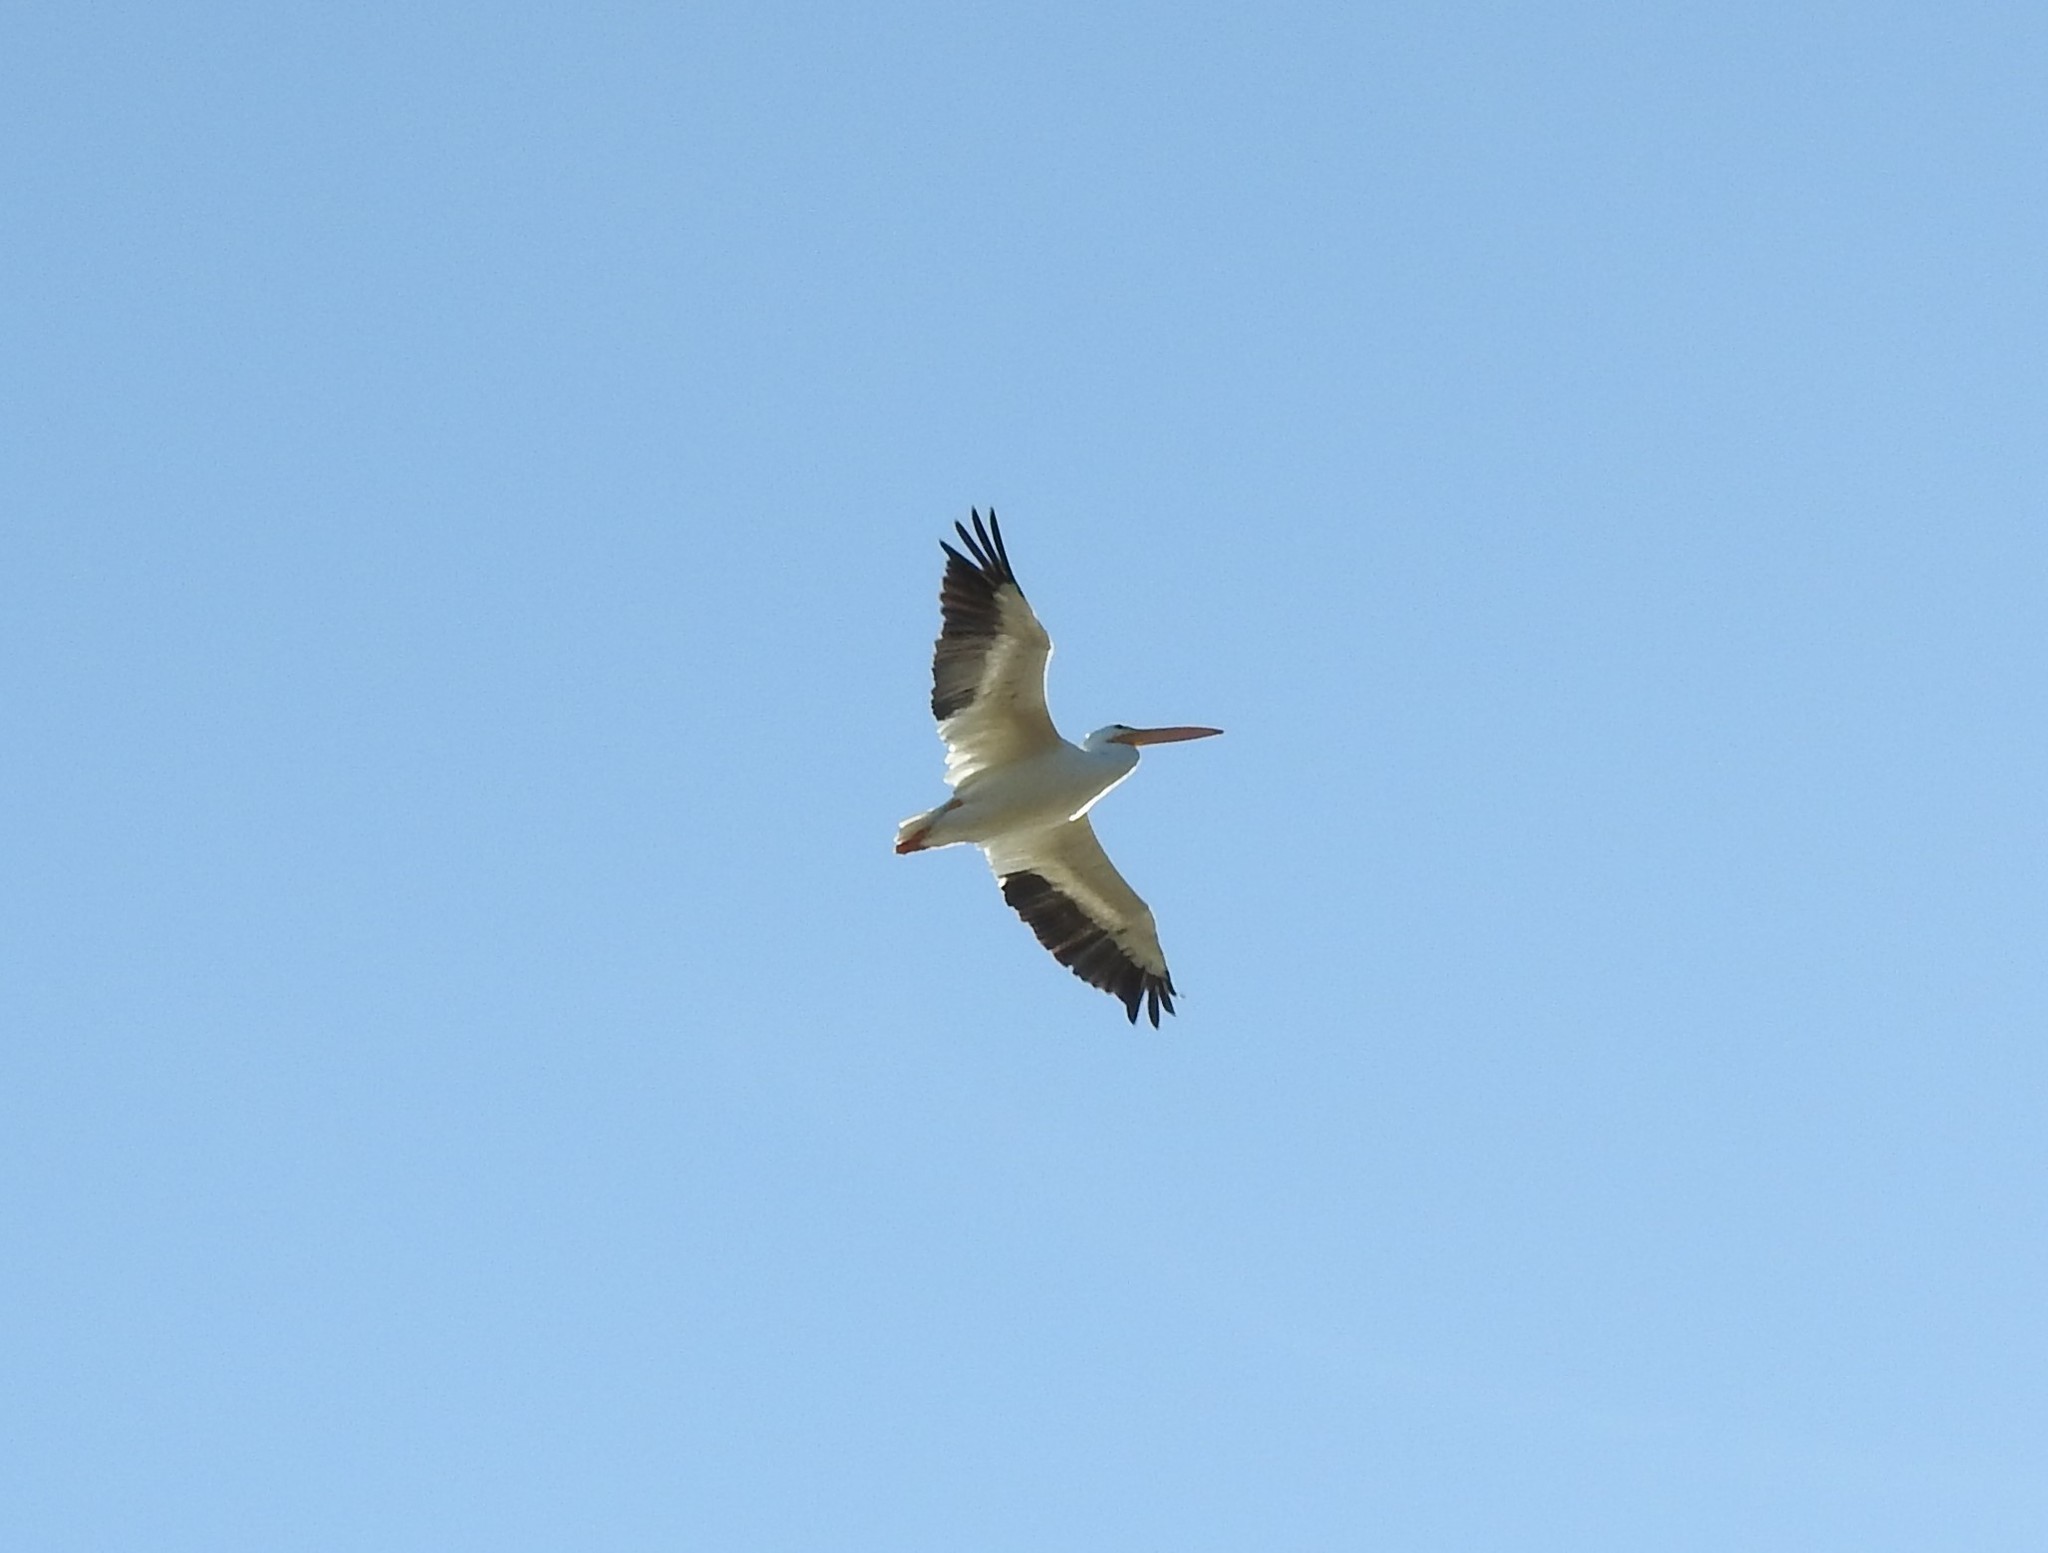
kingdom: Animalia
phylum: Chordata
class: Aves
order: Pelecaniformes
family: Pelecanidae
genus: Pelecanus
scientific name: Pelecanus erythrorhynchos
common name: American white pelican
